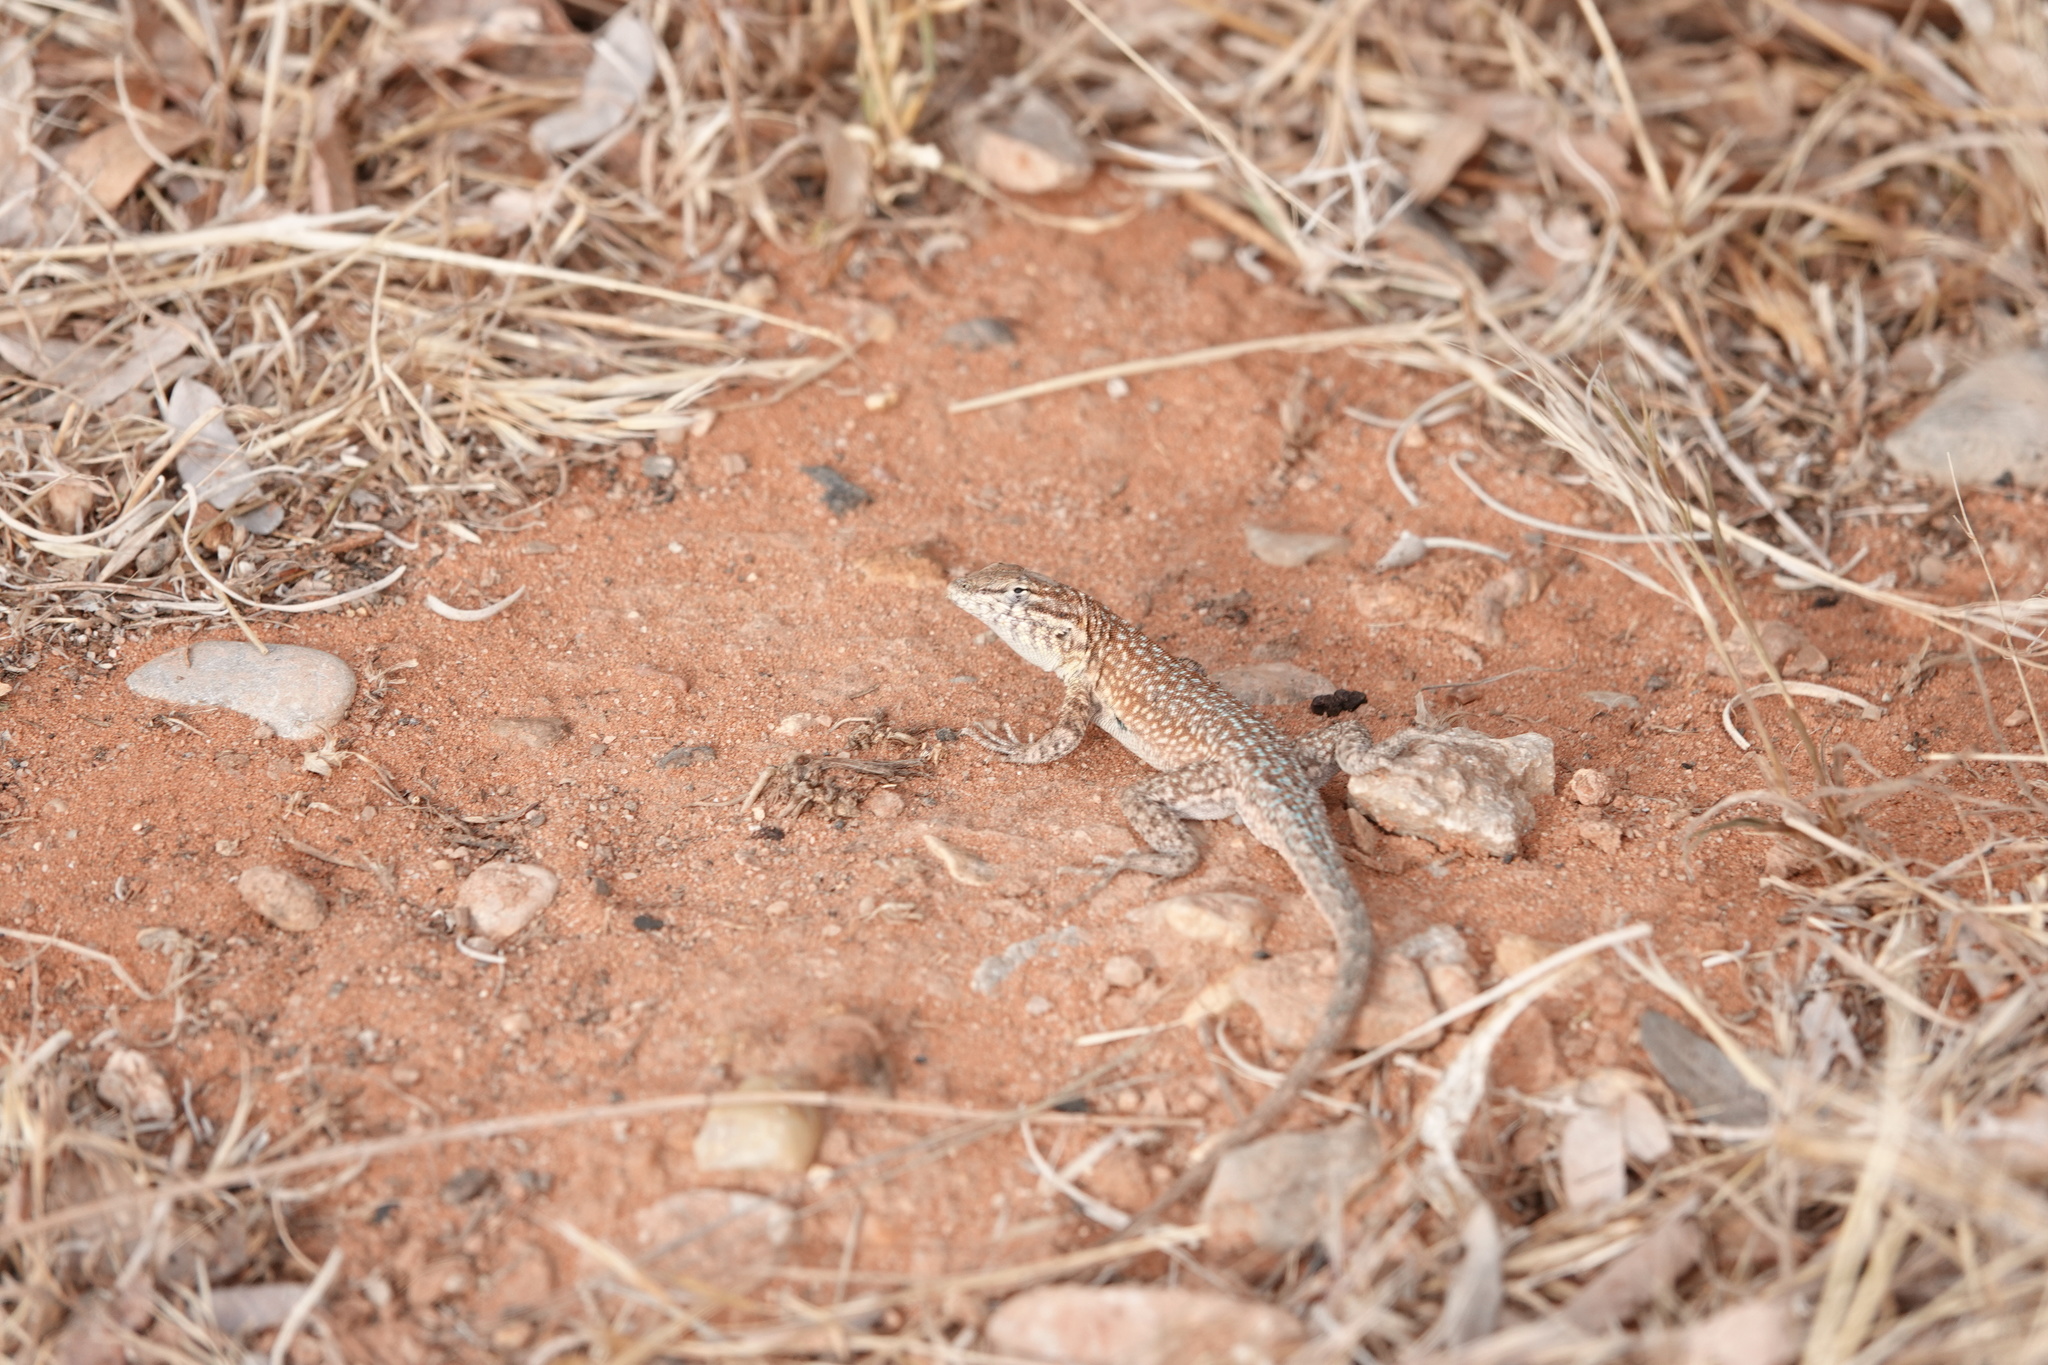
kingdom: Animalia
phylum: Chordata
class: Squamata
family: Phrynosomatidae
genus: Uta
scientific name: Uta stansburiana
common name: Side-blotched lizard
